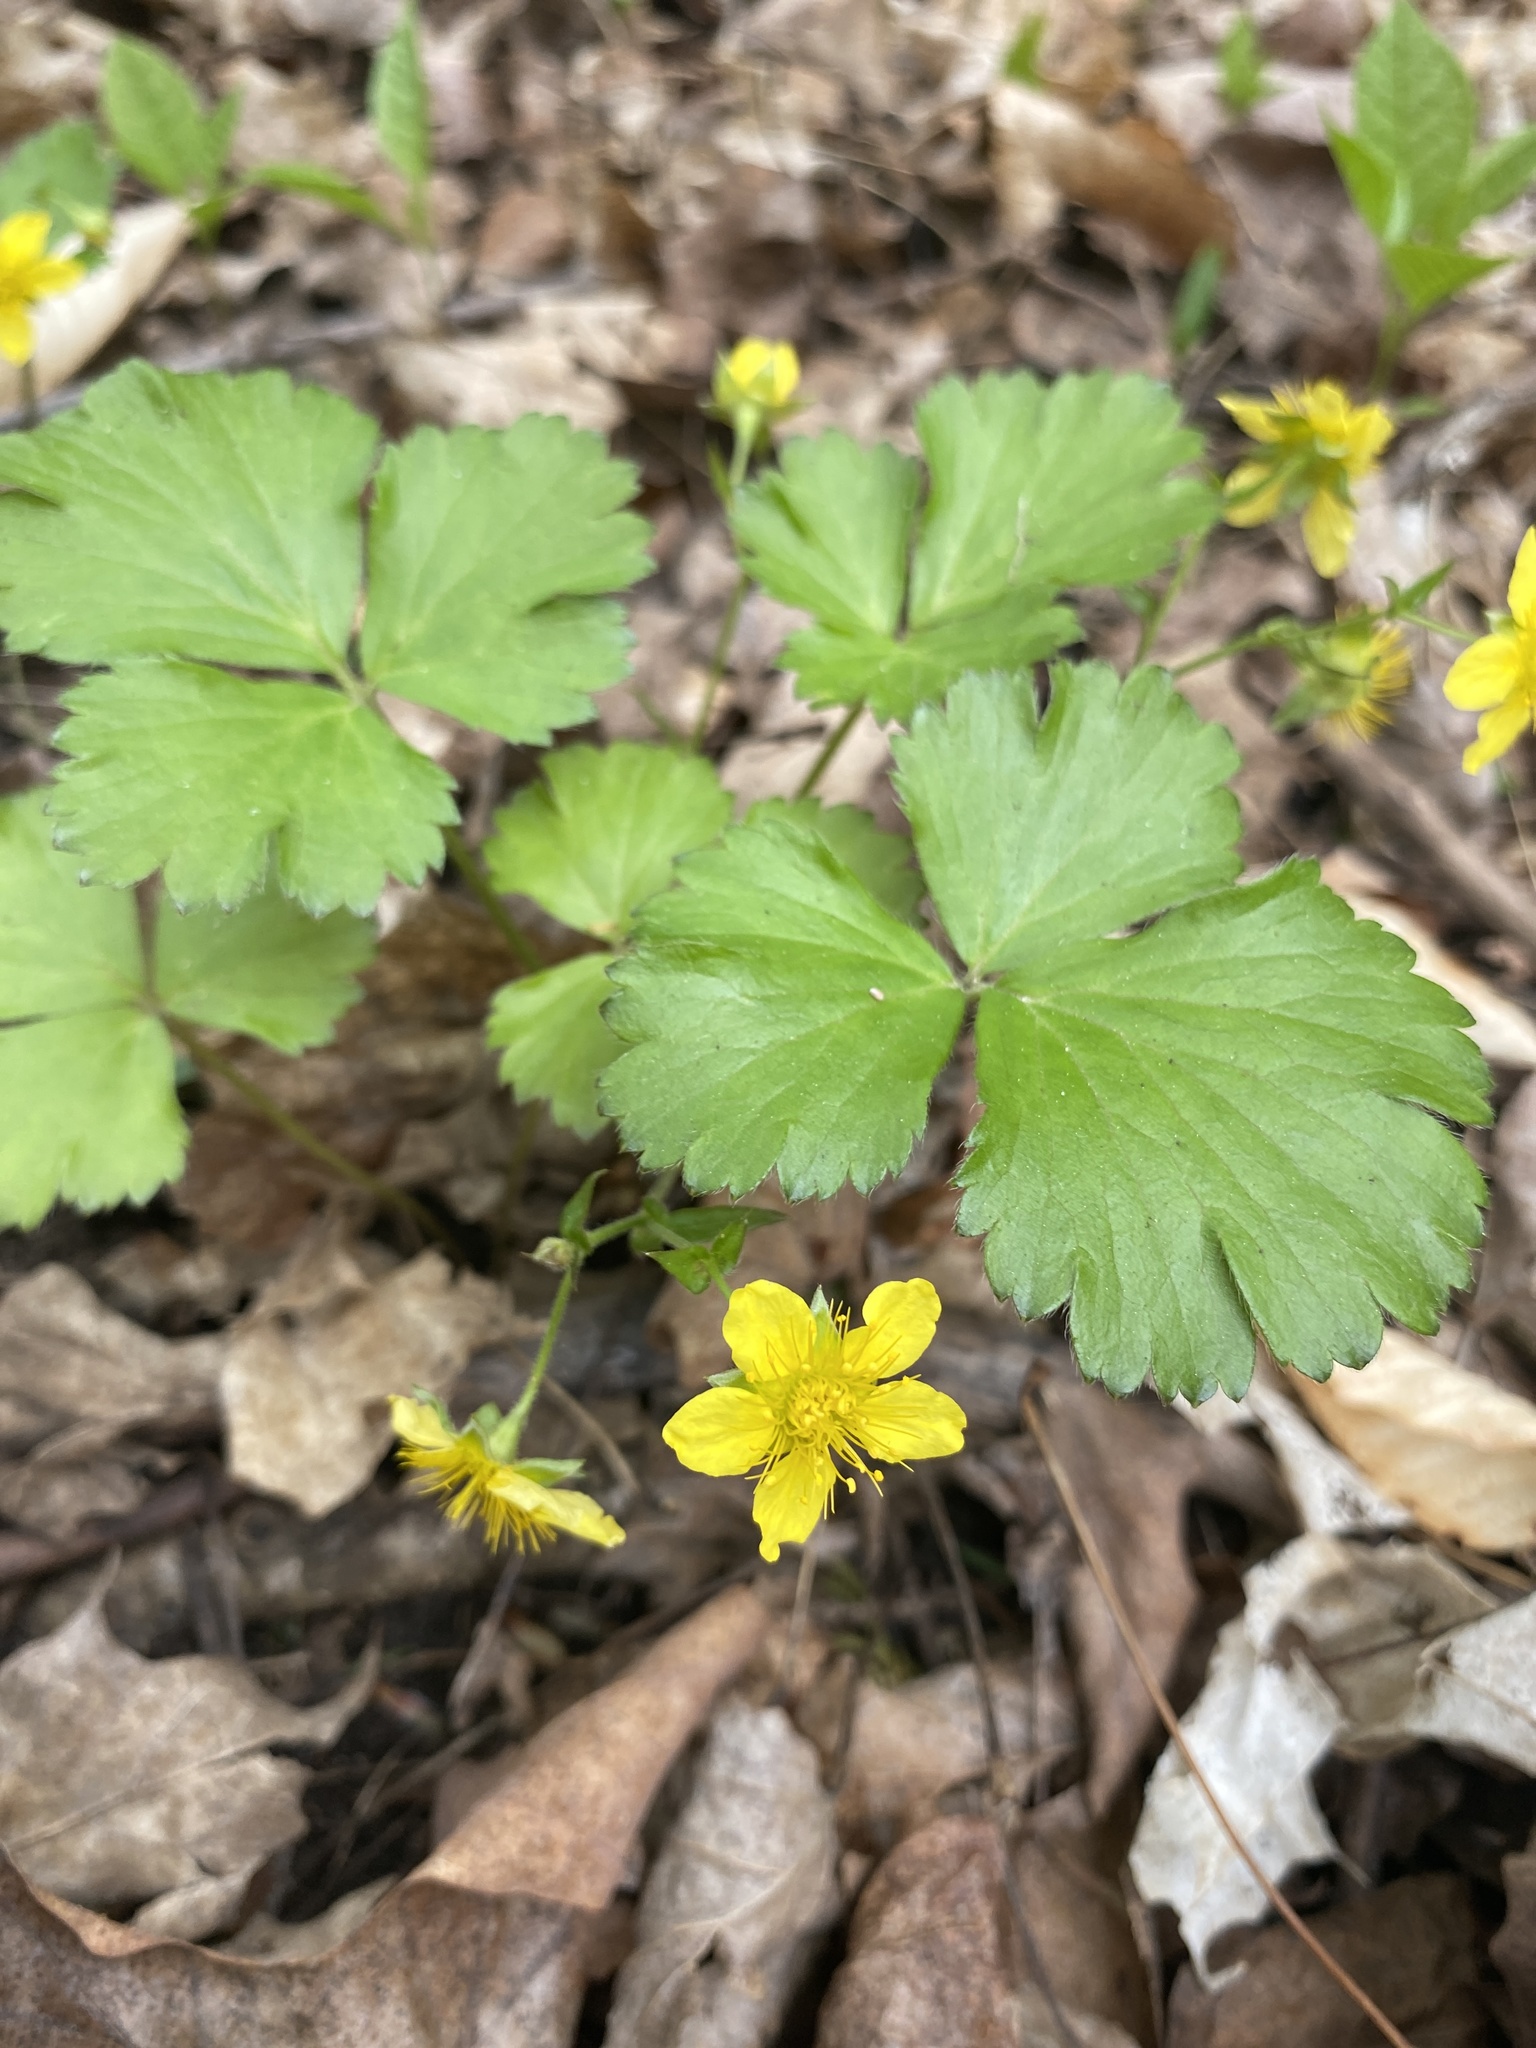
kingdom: Plantae
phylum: Tracheophyta
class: Magnoliopsida
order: Rosales
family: Rosaceae
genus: Geum
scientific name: Geum fragarioides
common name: Appalachian barren strawberry
